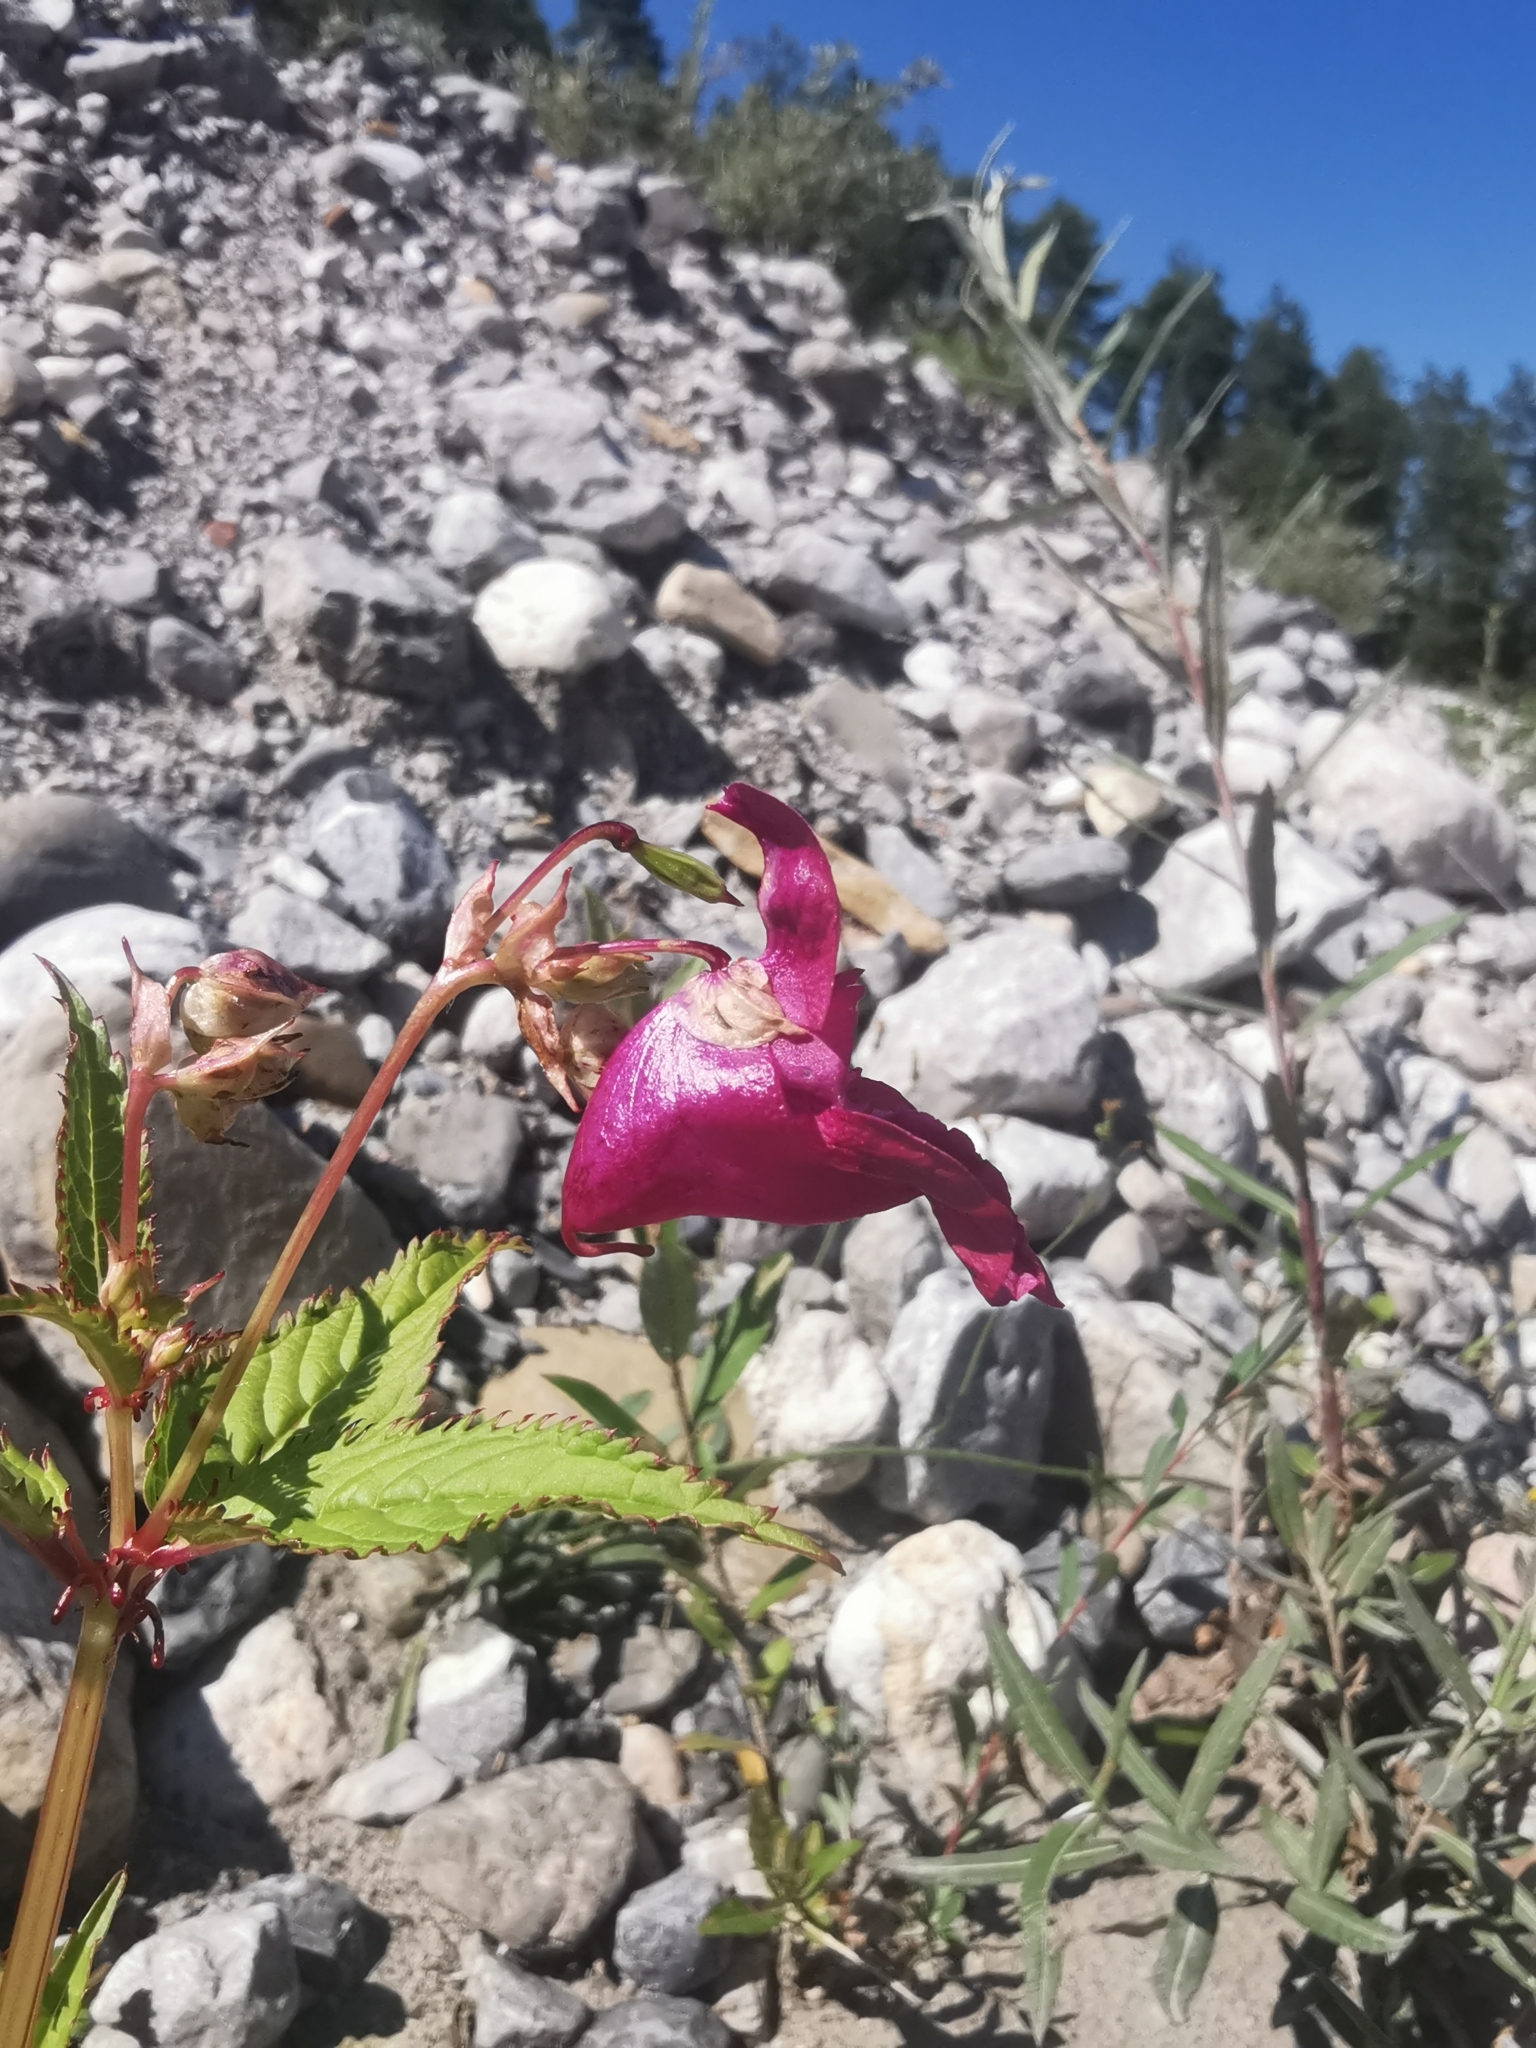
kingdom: Plantae
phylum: Tracheophyta
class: Magnoliopsida
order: Ericales
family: Balsaminaceae
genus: Impatiens
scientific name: Impatiens glandulifera
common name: Himalayan balsam
